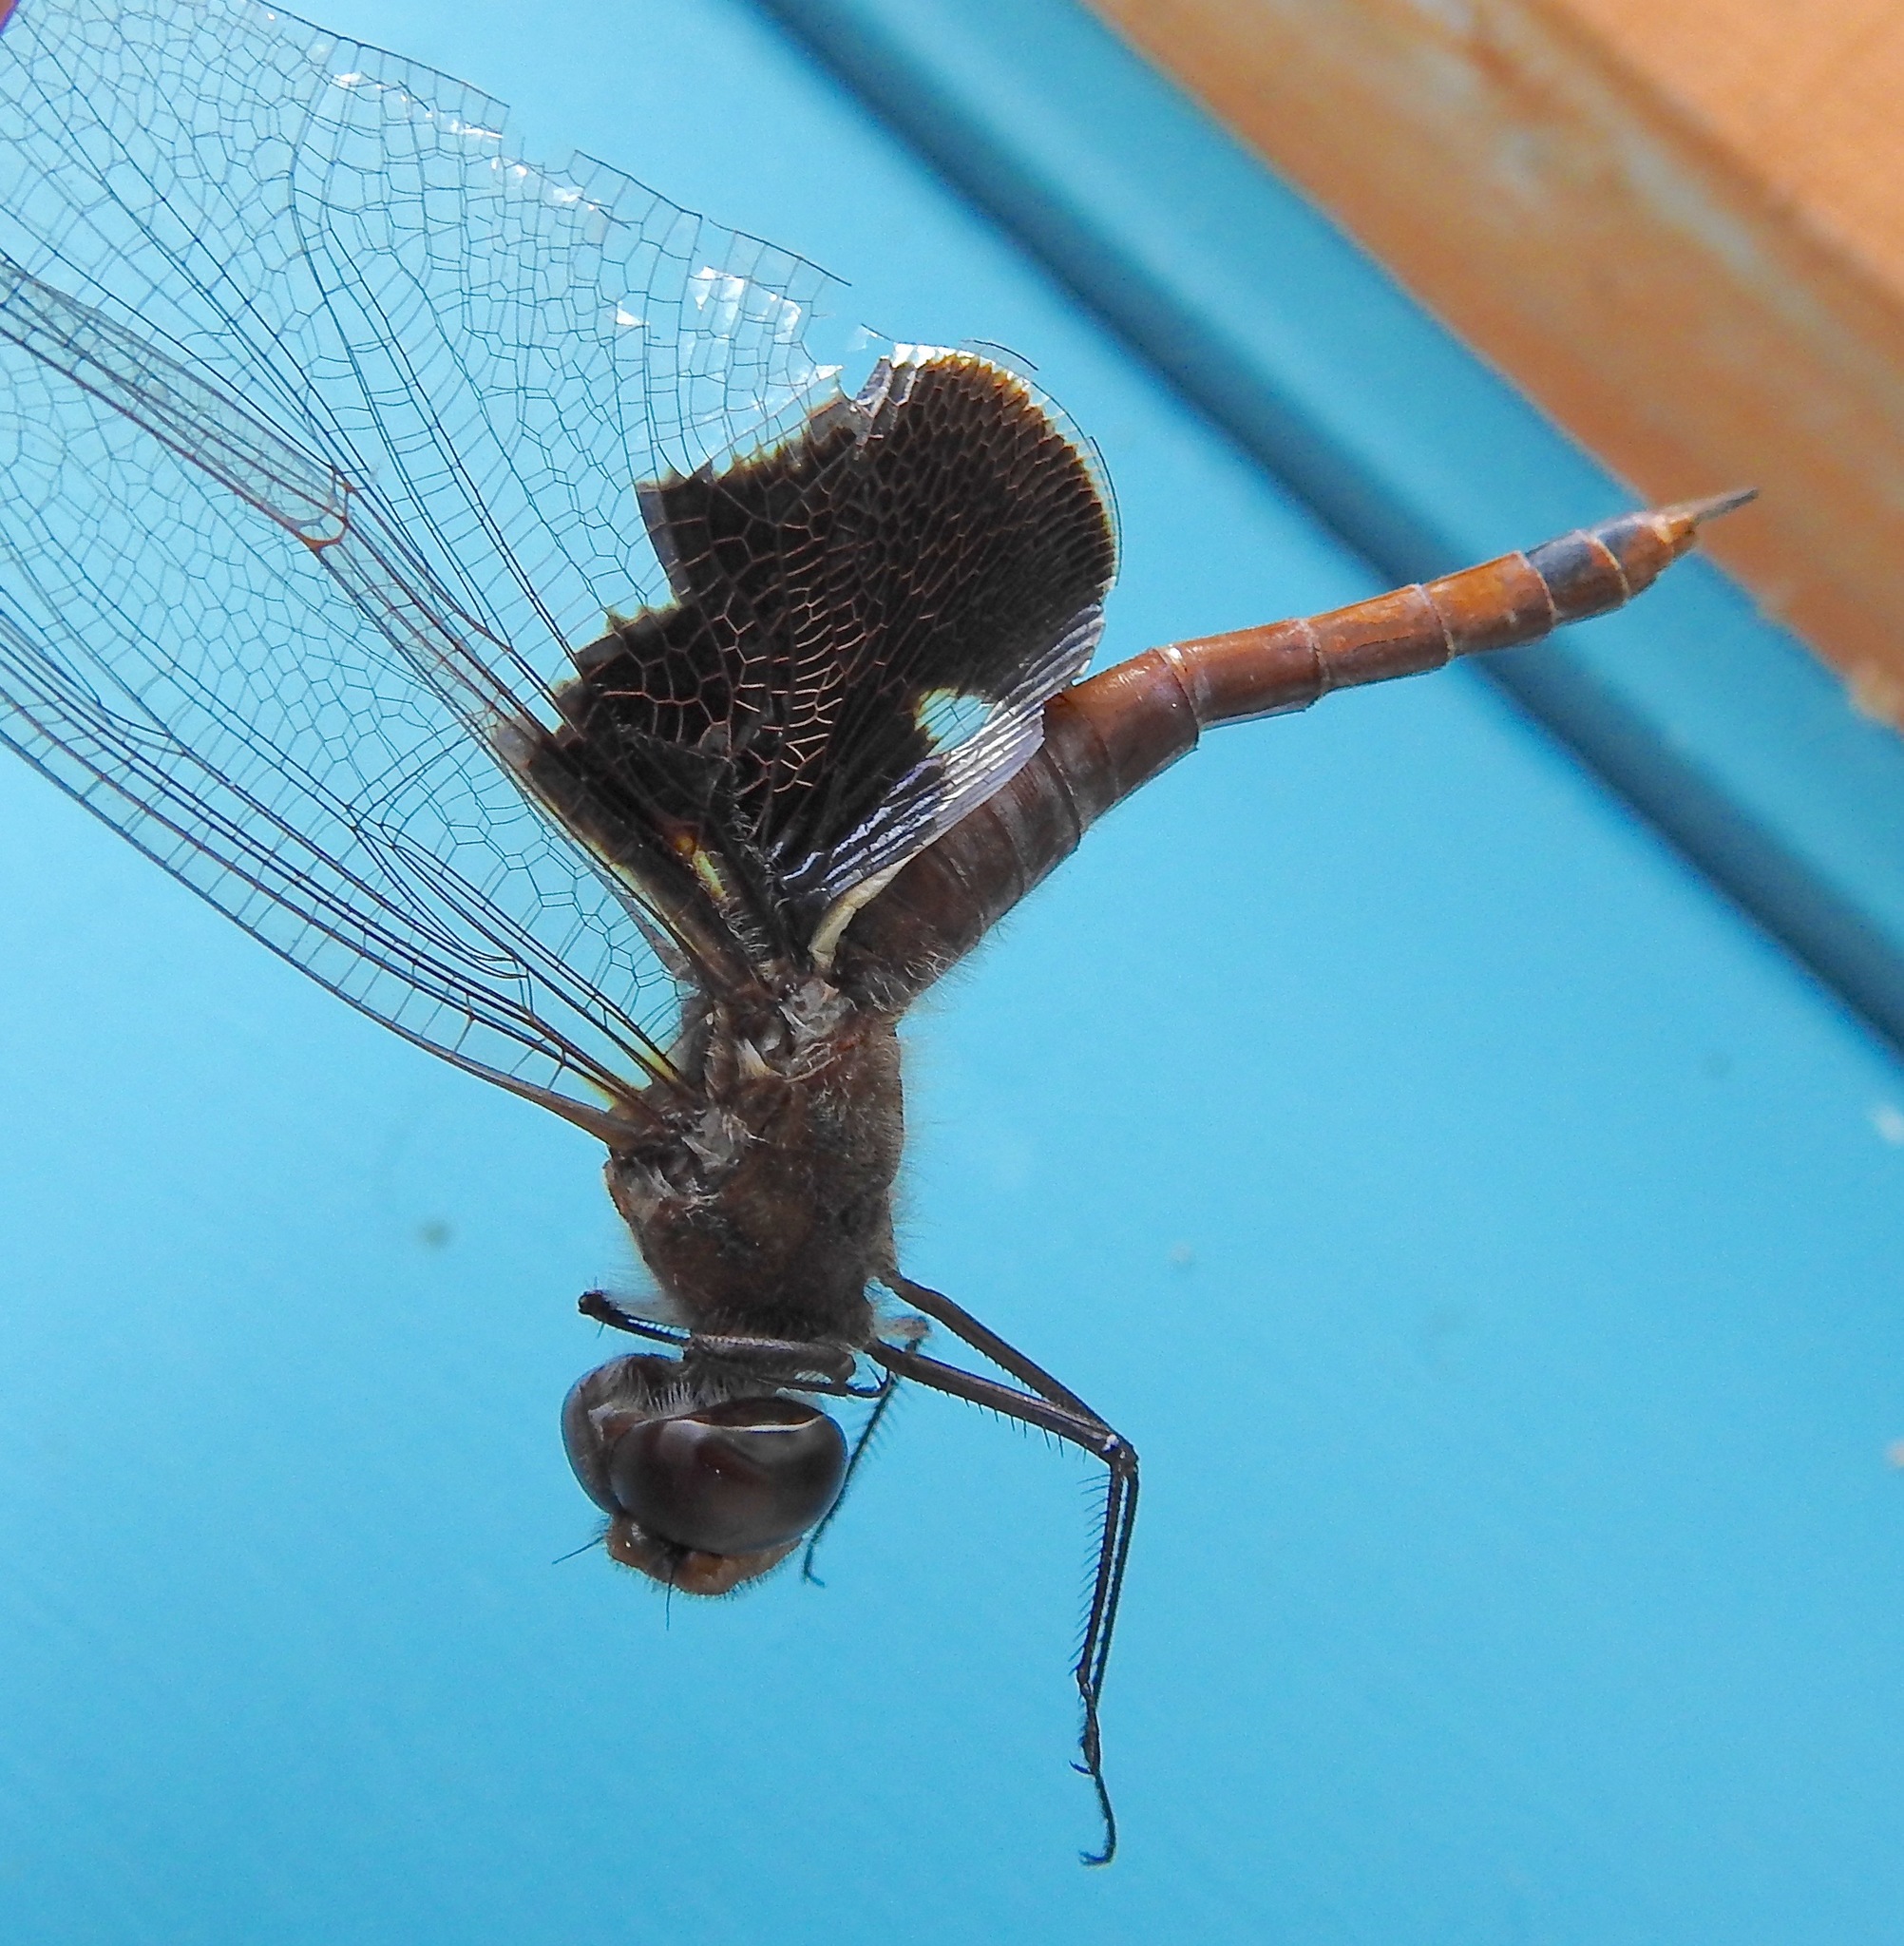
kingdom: Animalia
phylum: Arthropoda
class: Insecta
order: Odonata
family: Libellulidae
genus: Tramea
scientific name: Tramea carolina
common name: Carolina saddlebags
